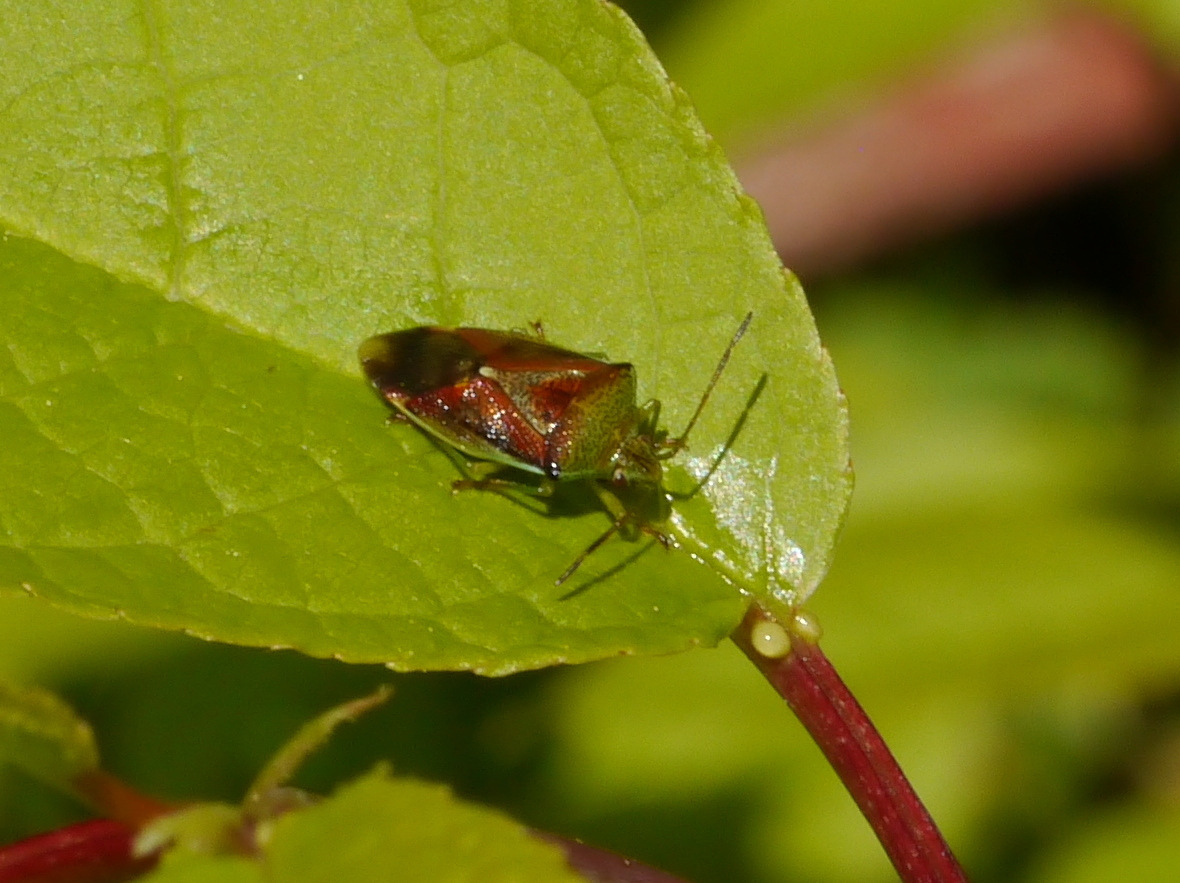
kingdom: Animalia
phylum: Arthropoda
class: Insecta
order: Hemiptera
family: Acanthosomatidae
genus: Elasmostethus
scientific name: Elasmostethus interstinctus
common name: Birch shieldbug
